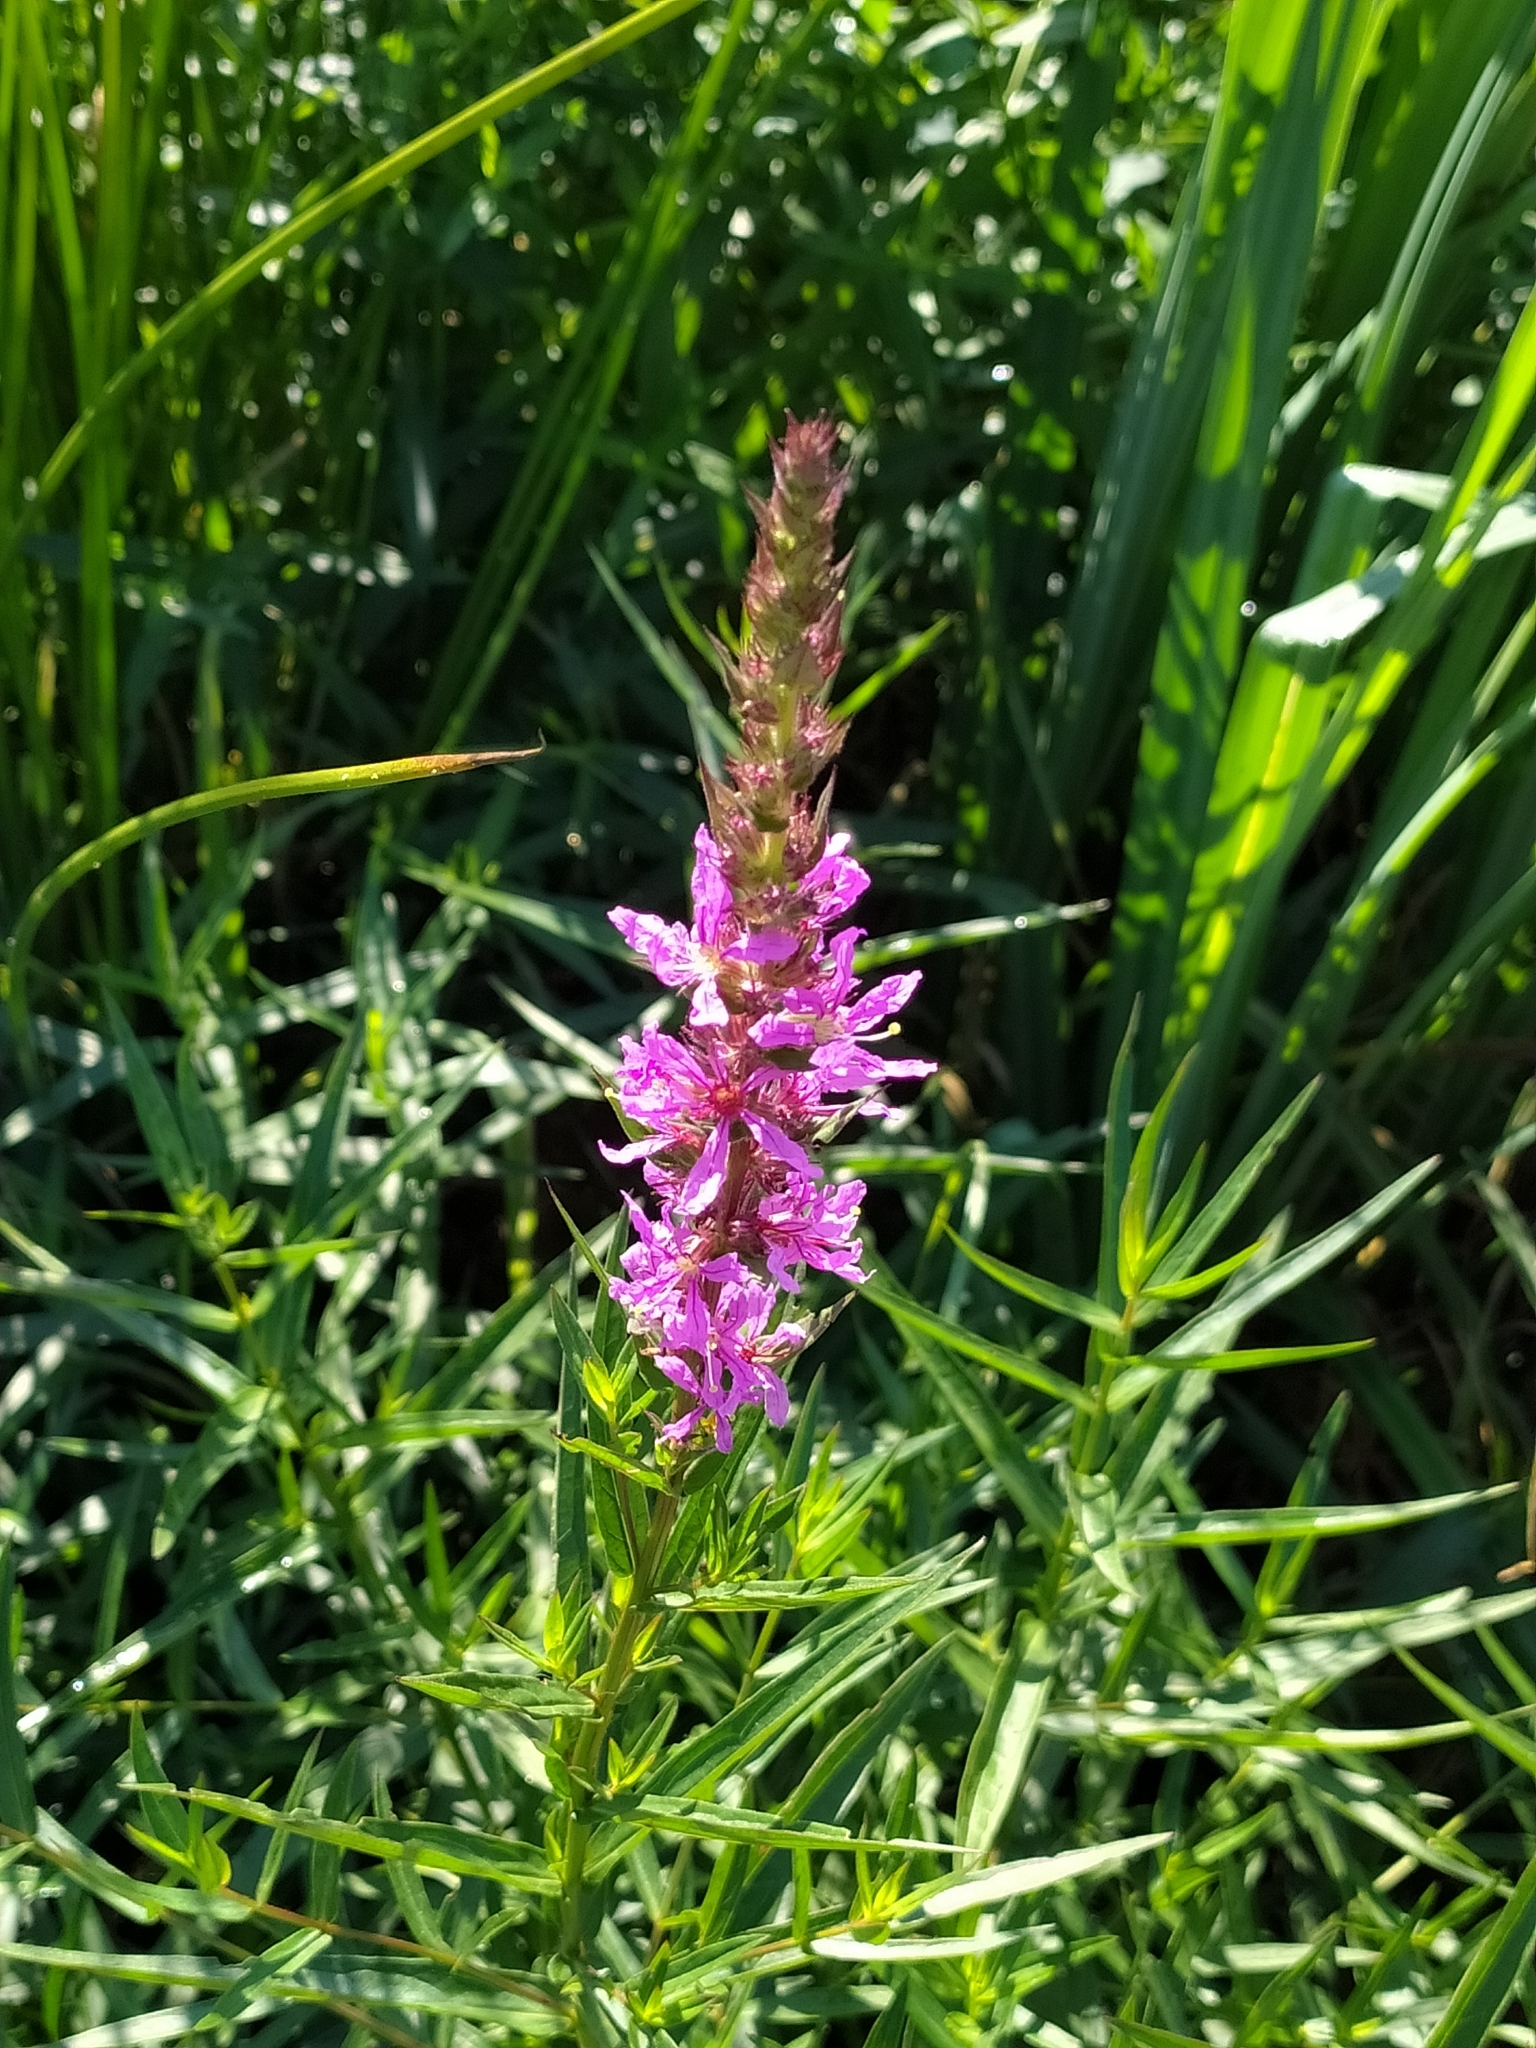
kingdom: Plantae
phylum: Tracheophyta
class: Magnoliopsida
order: Myrtales
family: Lythraceae
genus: Lythrum
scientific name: Lythrum salicaria
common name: Purple loosestrife
